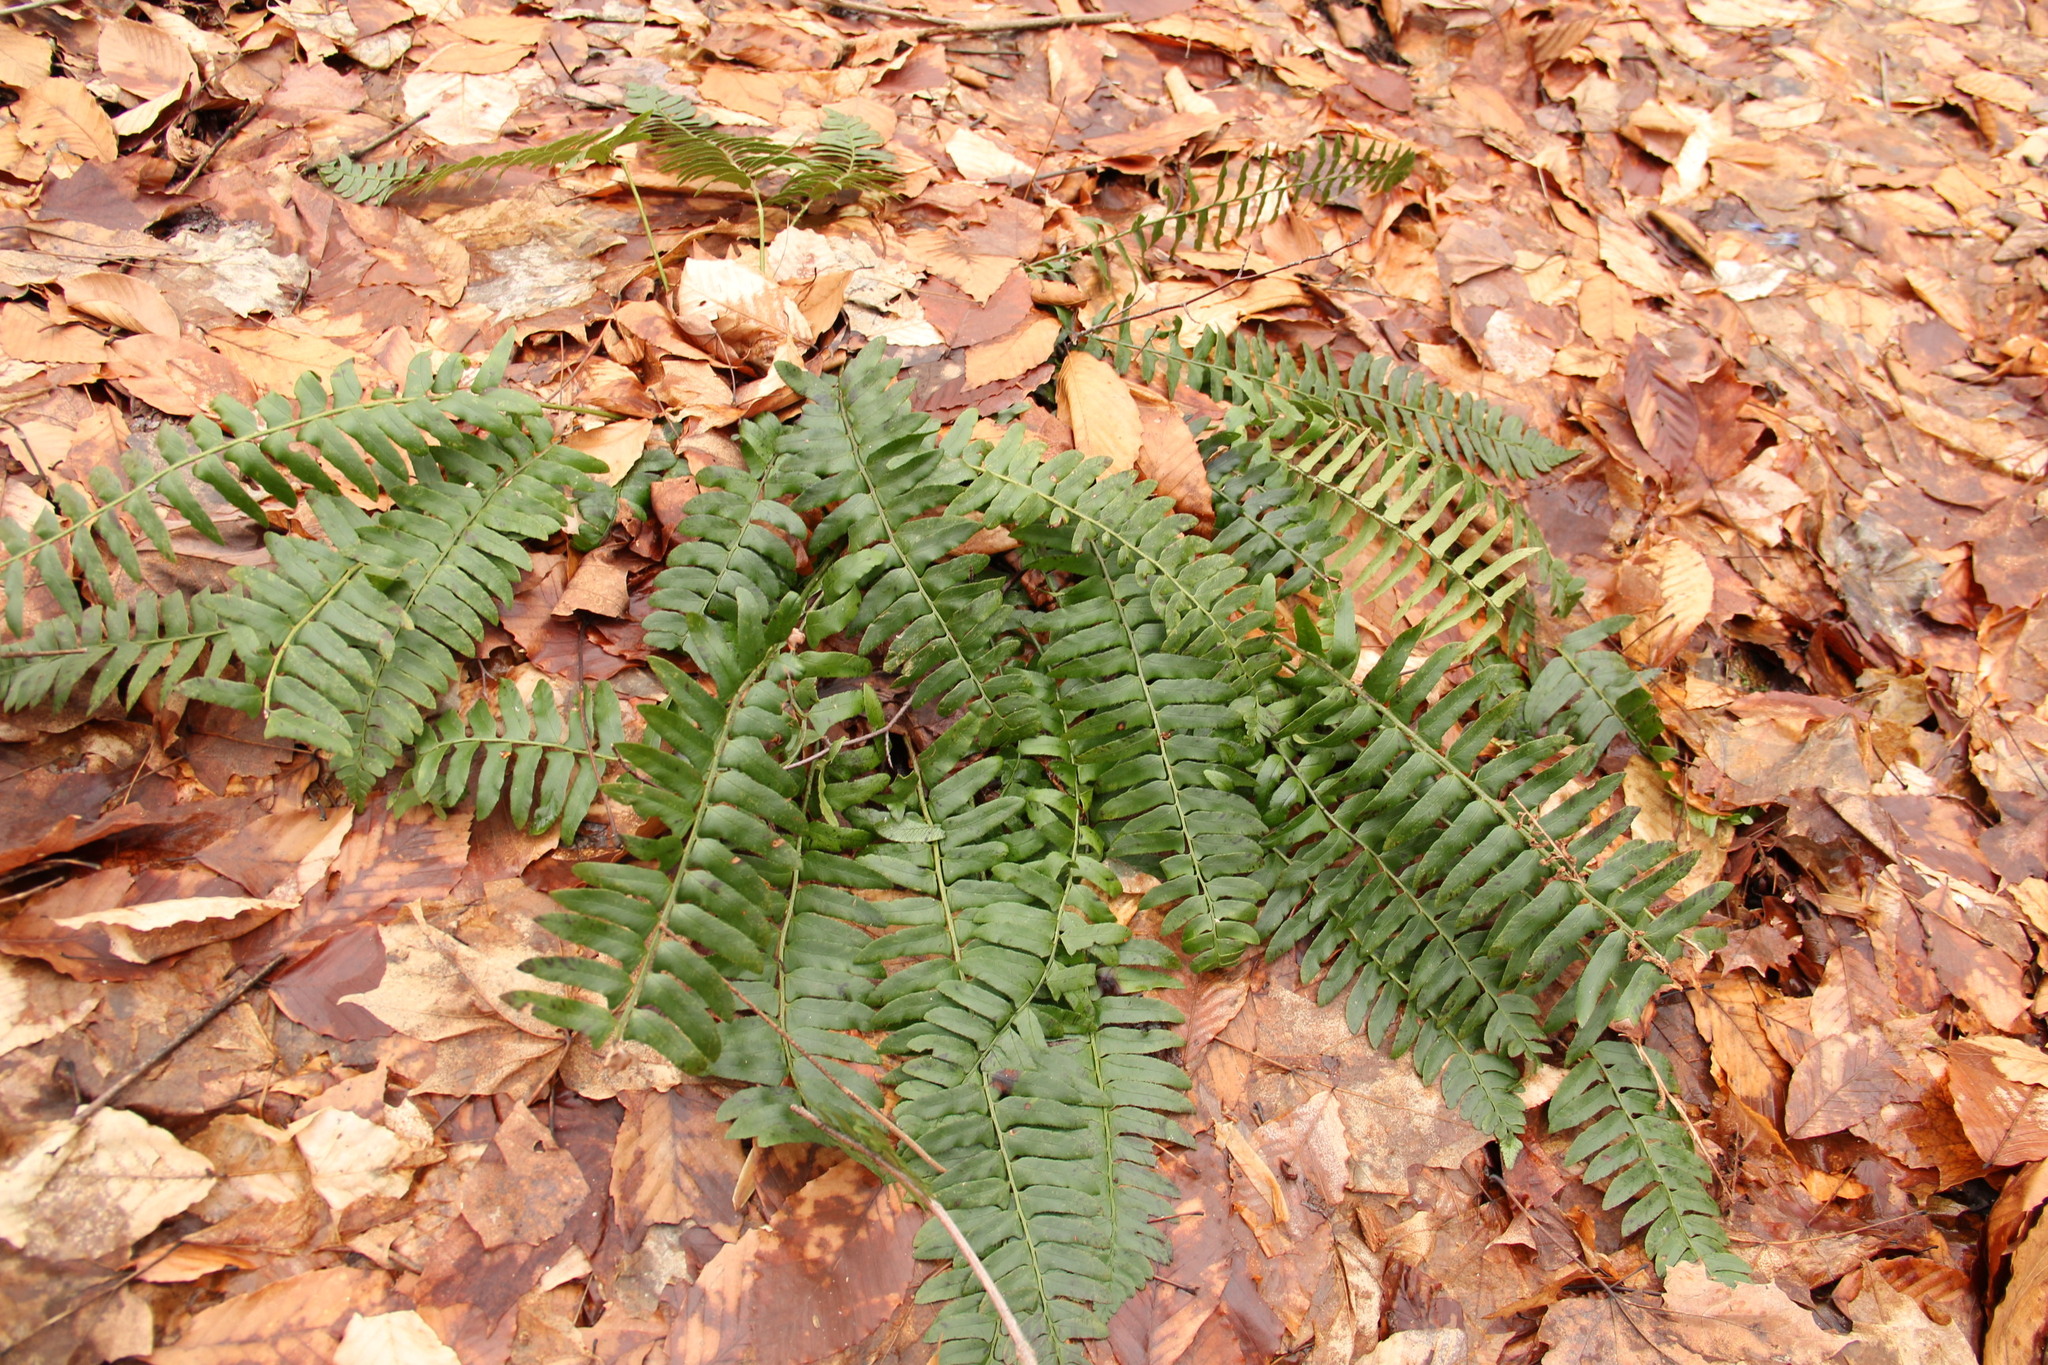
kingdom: Plantae
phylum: Tracheophyta
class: Polypodiopsida
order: Polypodiales
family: Dryopteridaceae
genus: Polystichum
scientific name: Polystichum acrostichoides
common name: Christmas fern
